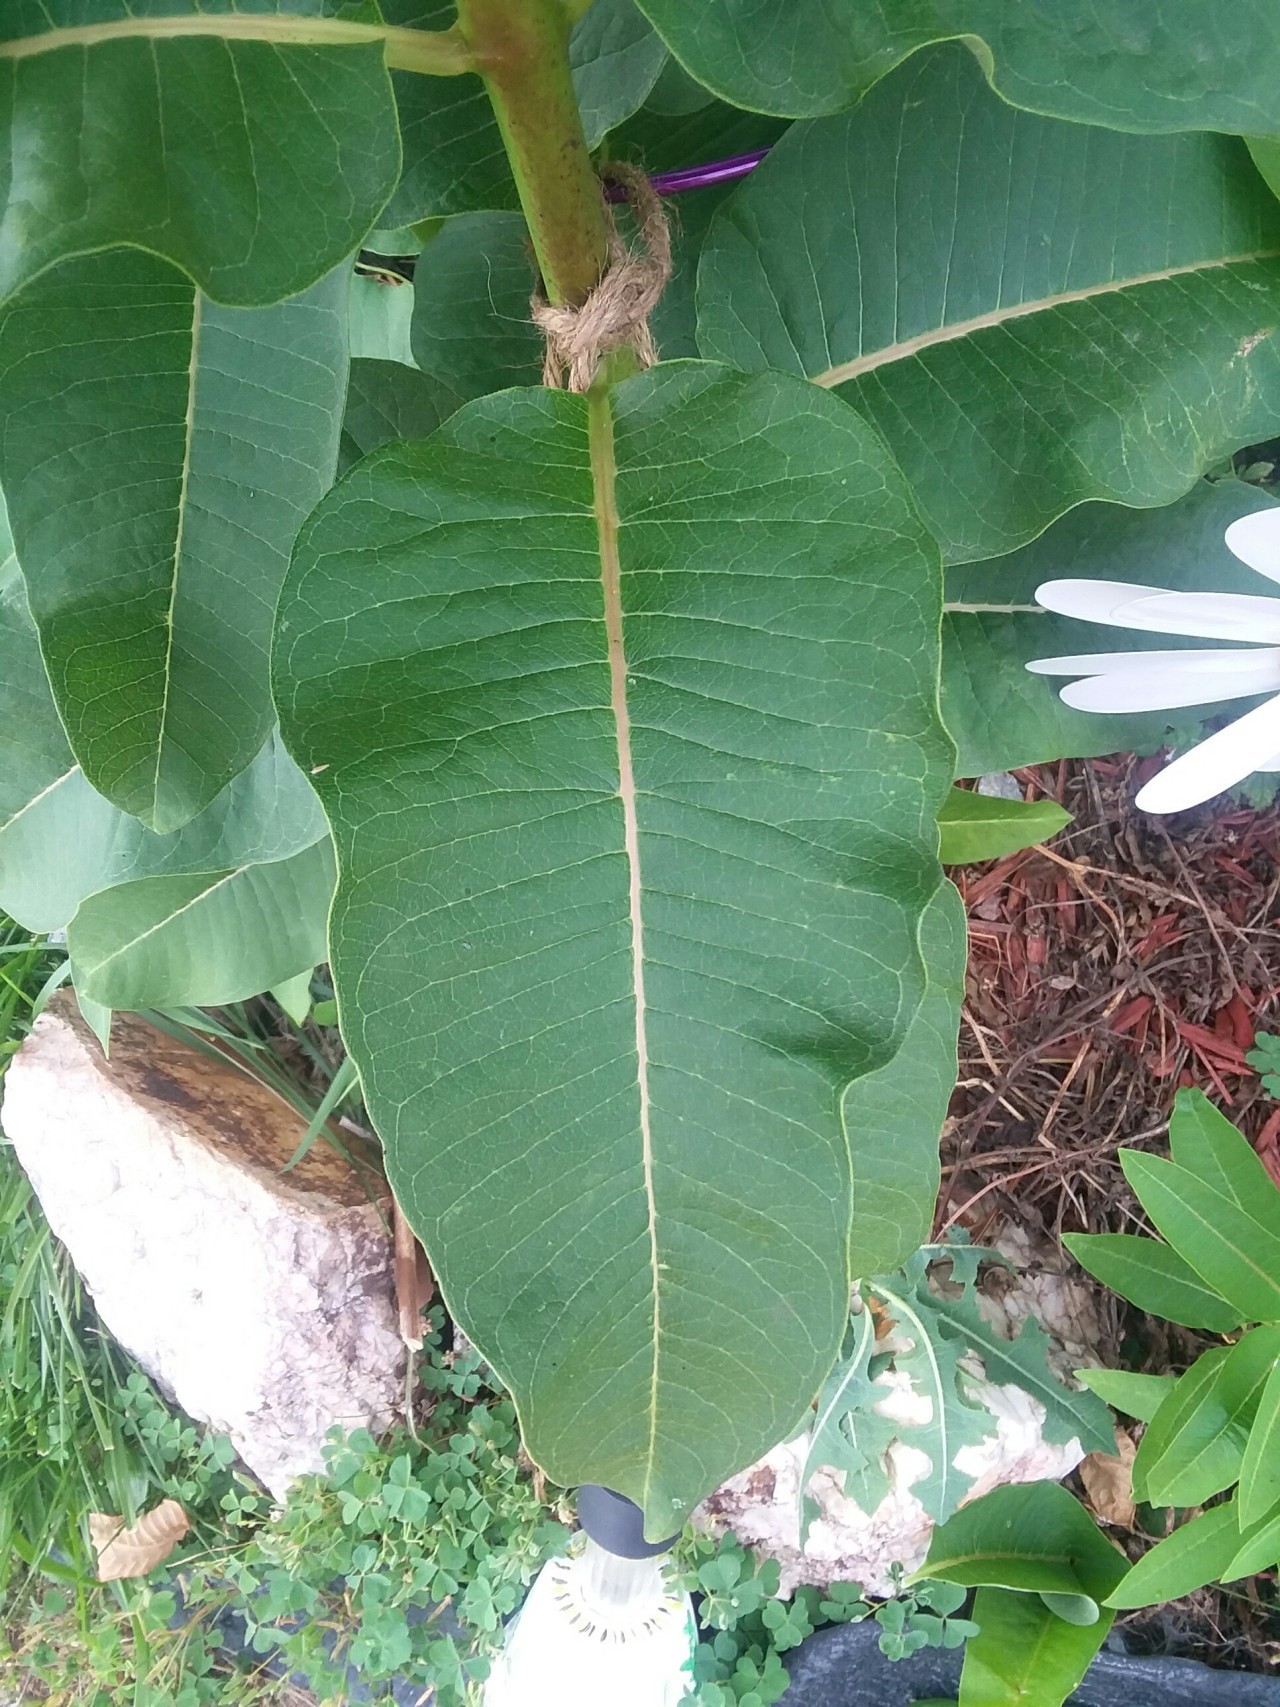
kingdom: Plantae
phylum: Tracheophyta
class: Magnoliopsida
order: Gentianales
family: Apocynaceae
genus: Asclepias
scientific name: Asclepias syriaca
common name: Common milkweed
